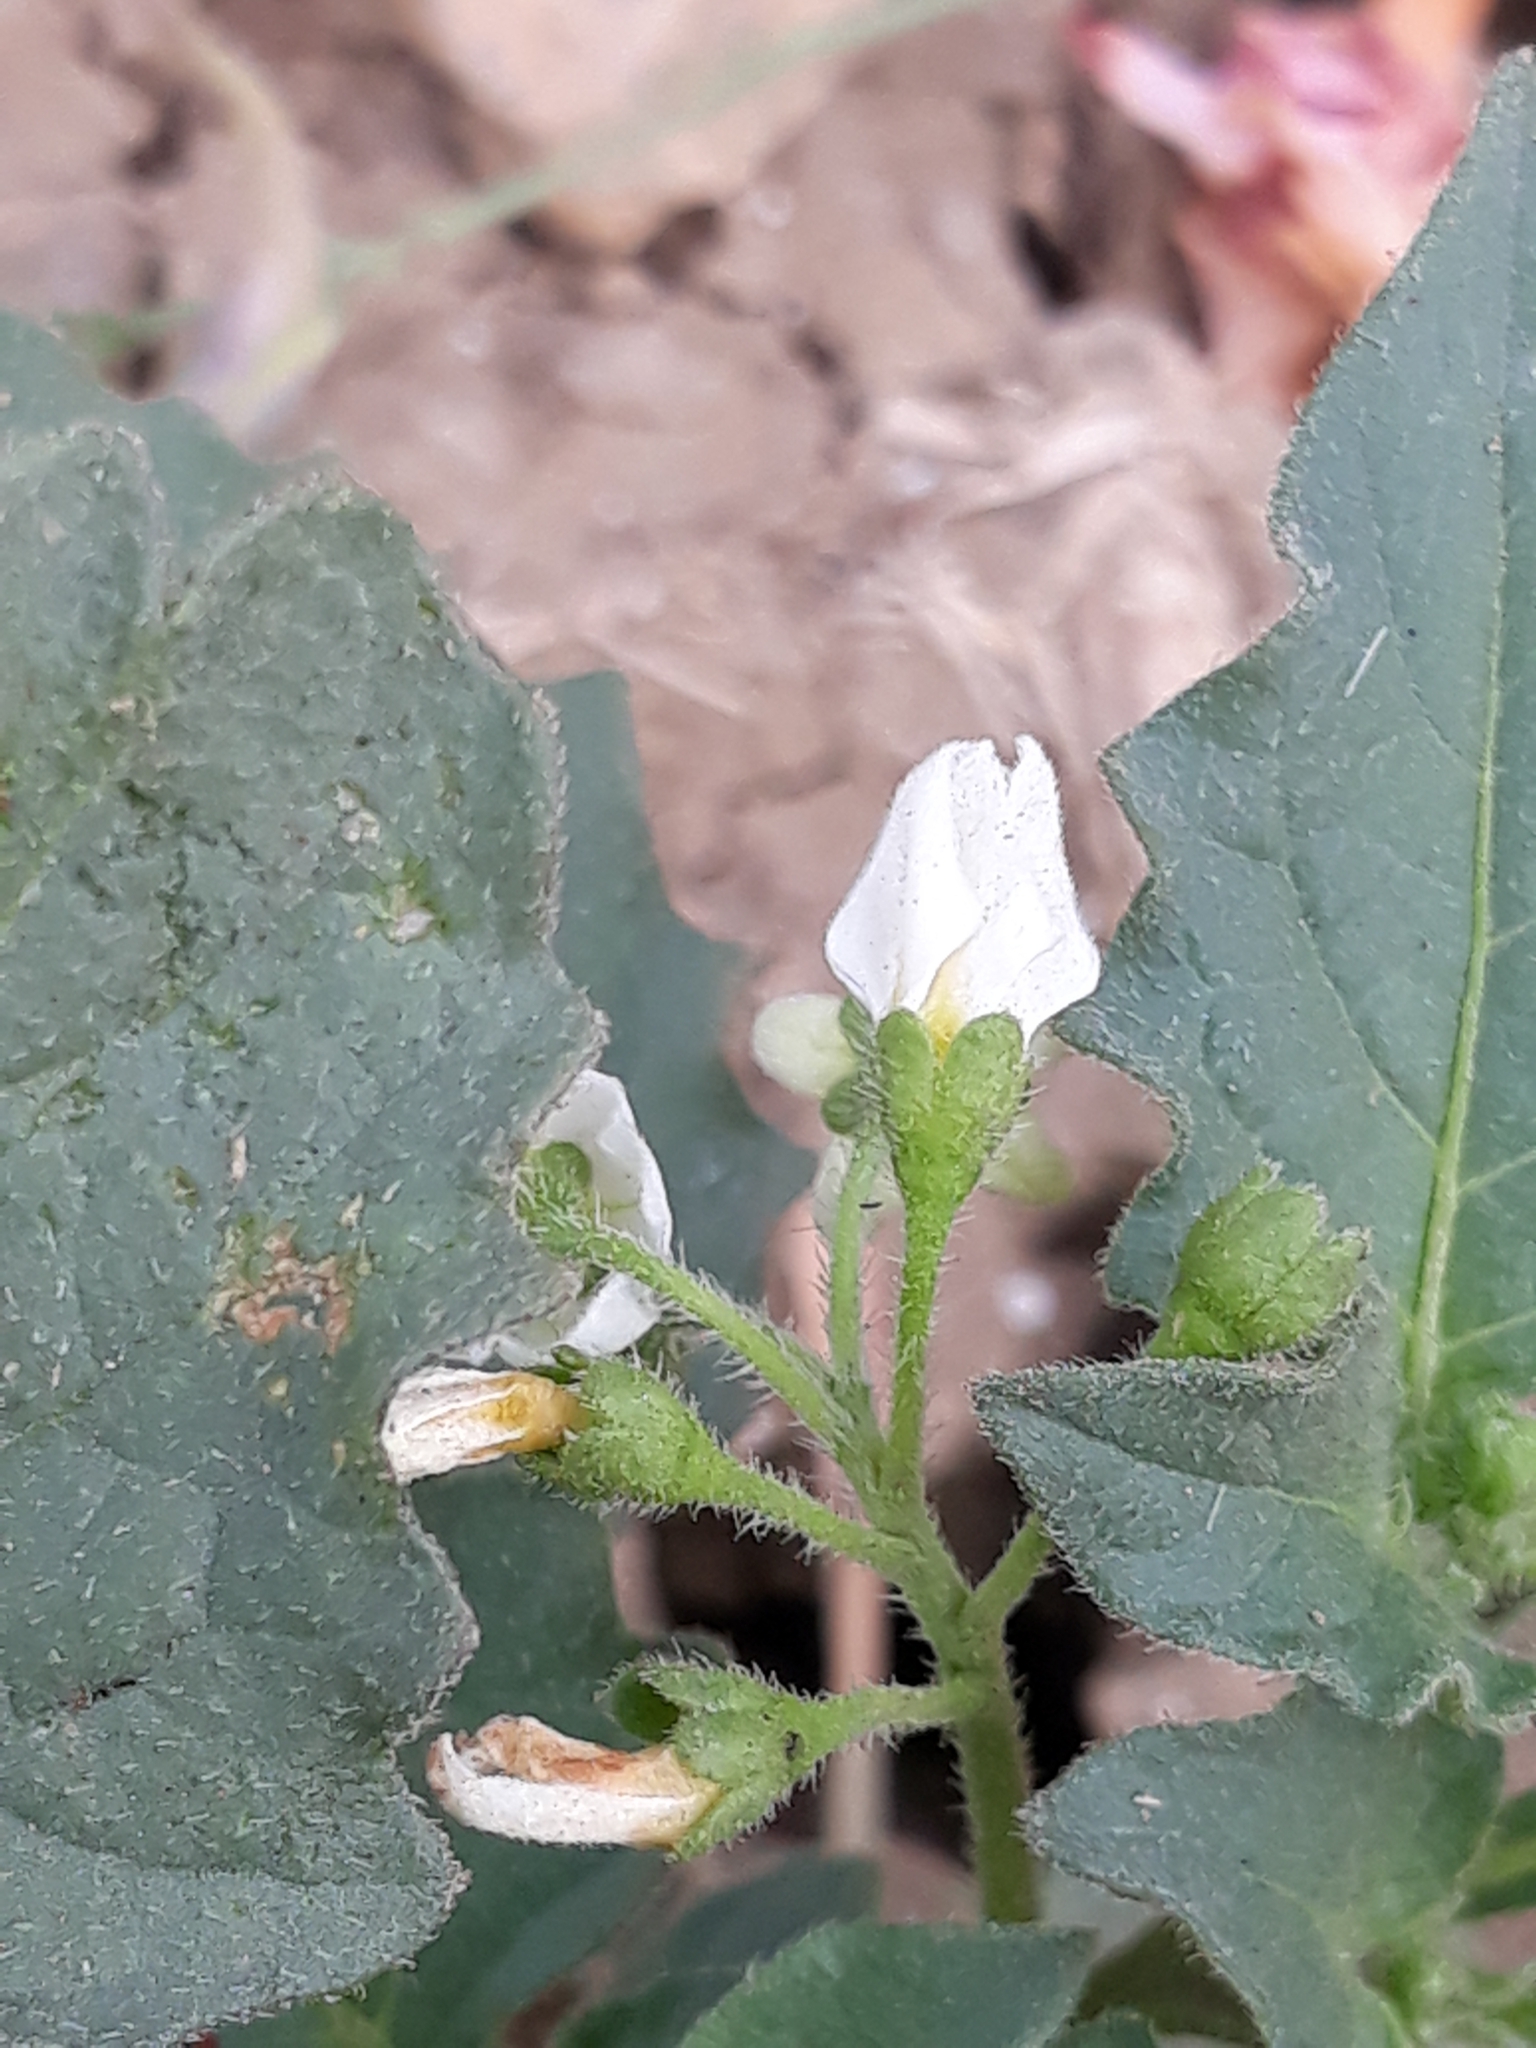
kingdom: Plantae
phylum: Tracheophyta
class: Magnoliopsida
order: Solanales
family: Solanaceae
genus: Solanum
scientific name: Solanum villosum
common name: Red nightshade
